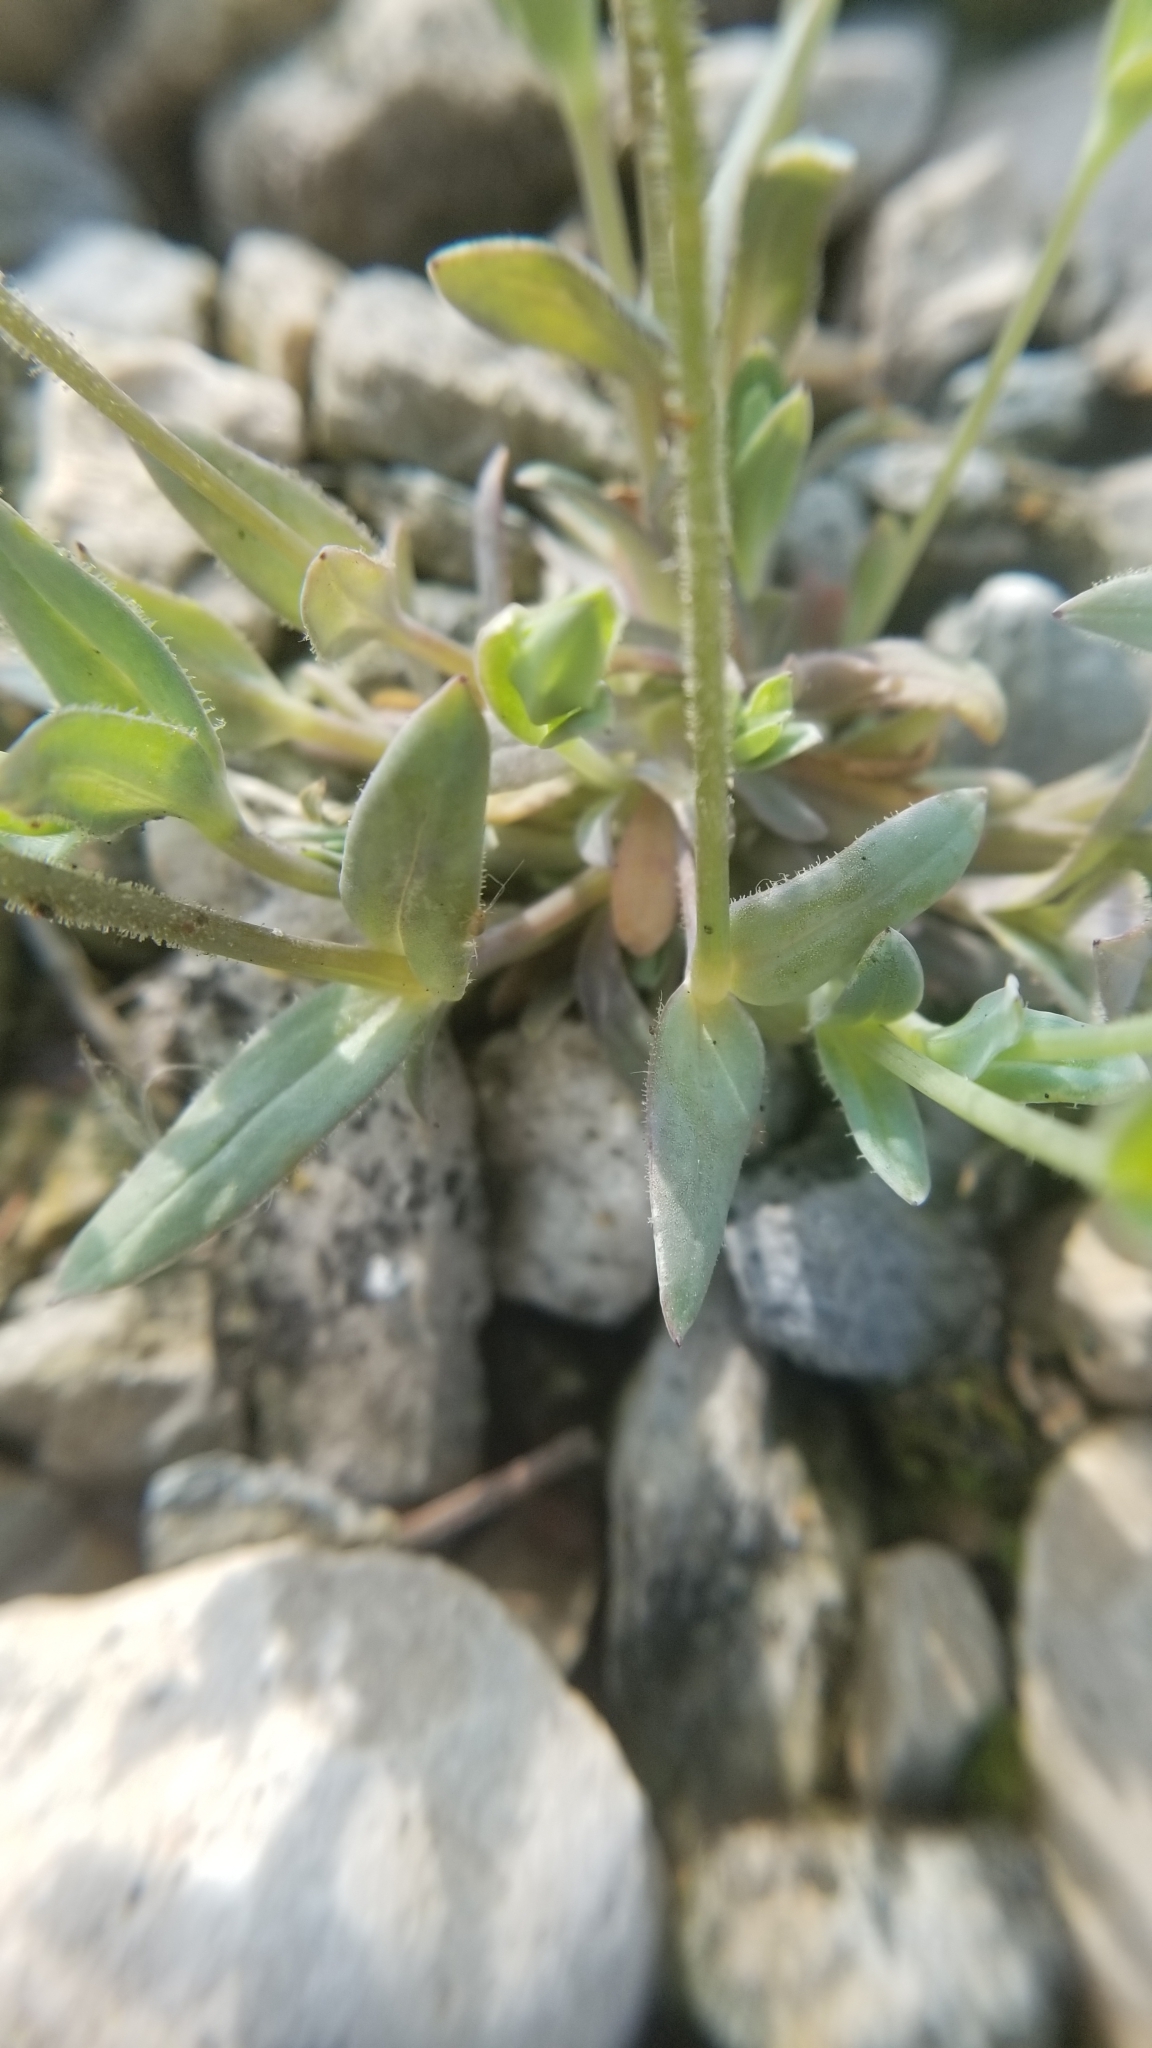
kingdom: Plantae
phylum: Tracheophyta
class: Magnoliopsida
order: Caryophyllales
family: Caryophyllaceae
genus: Holosteum
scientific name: Holosteum umbellatum
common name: Jagged chickweed
